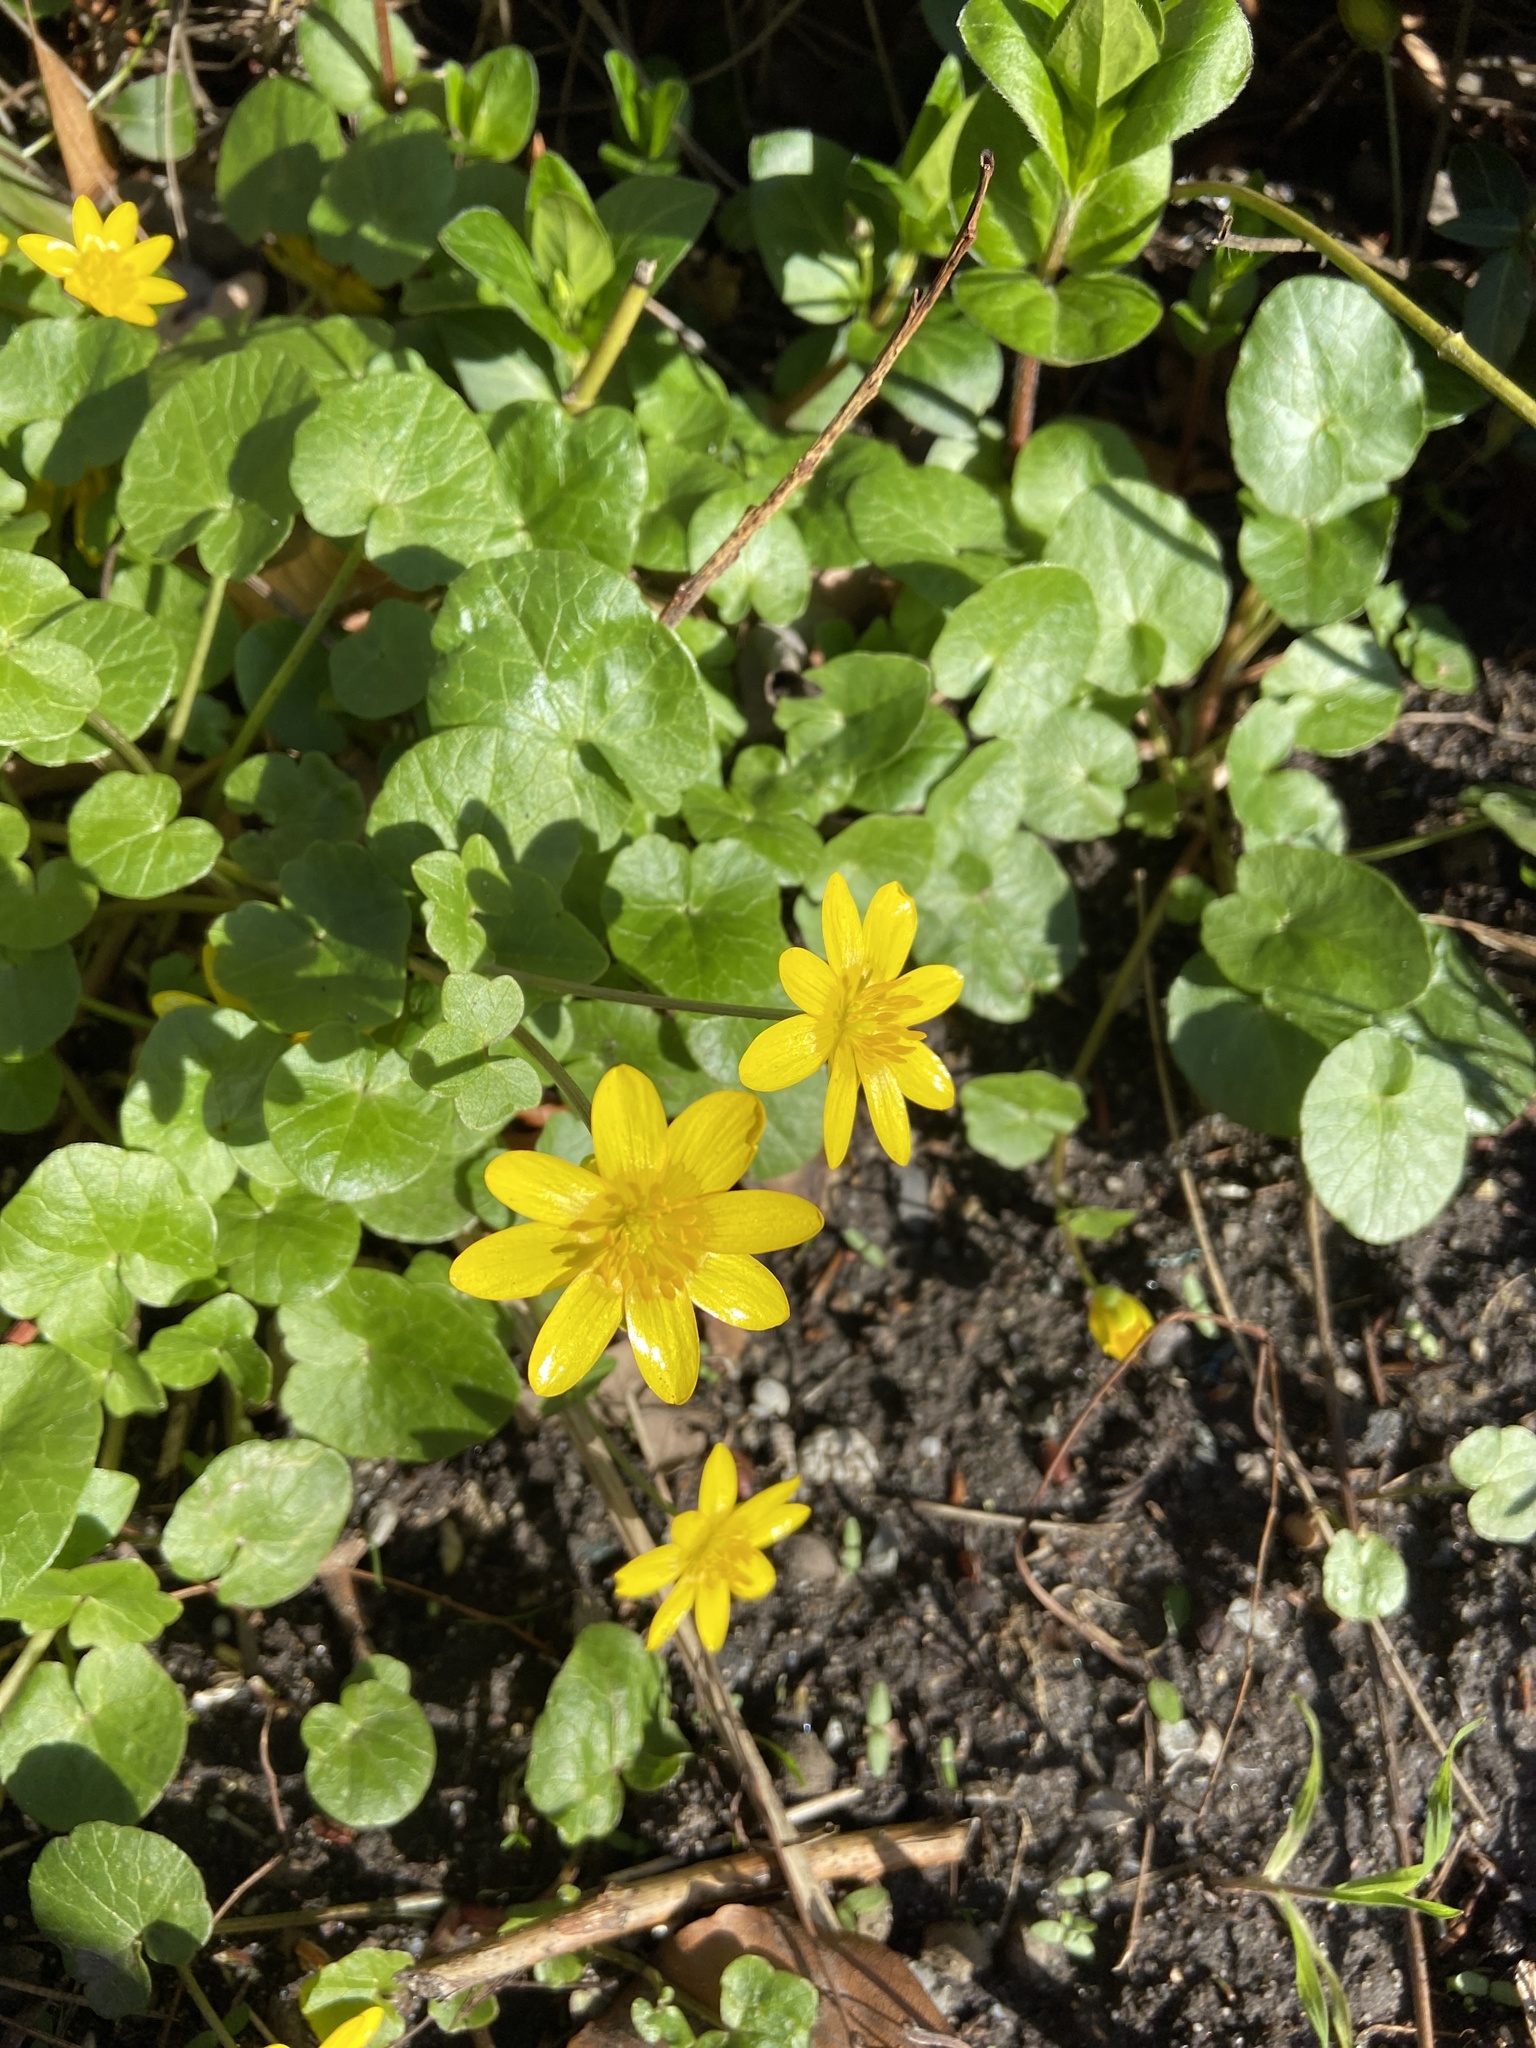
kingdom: Plantae
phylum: Tracheophyta
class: Magnoliopsida
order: Ranunculales
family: Ranunculaceae
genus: Ficaria
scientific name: Ficaria verna
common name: Lesser celandine
